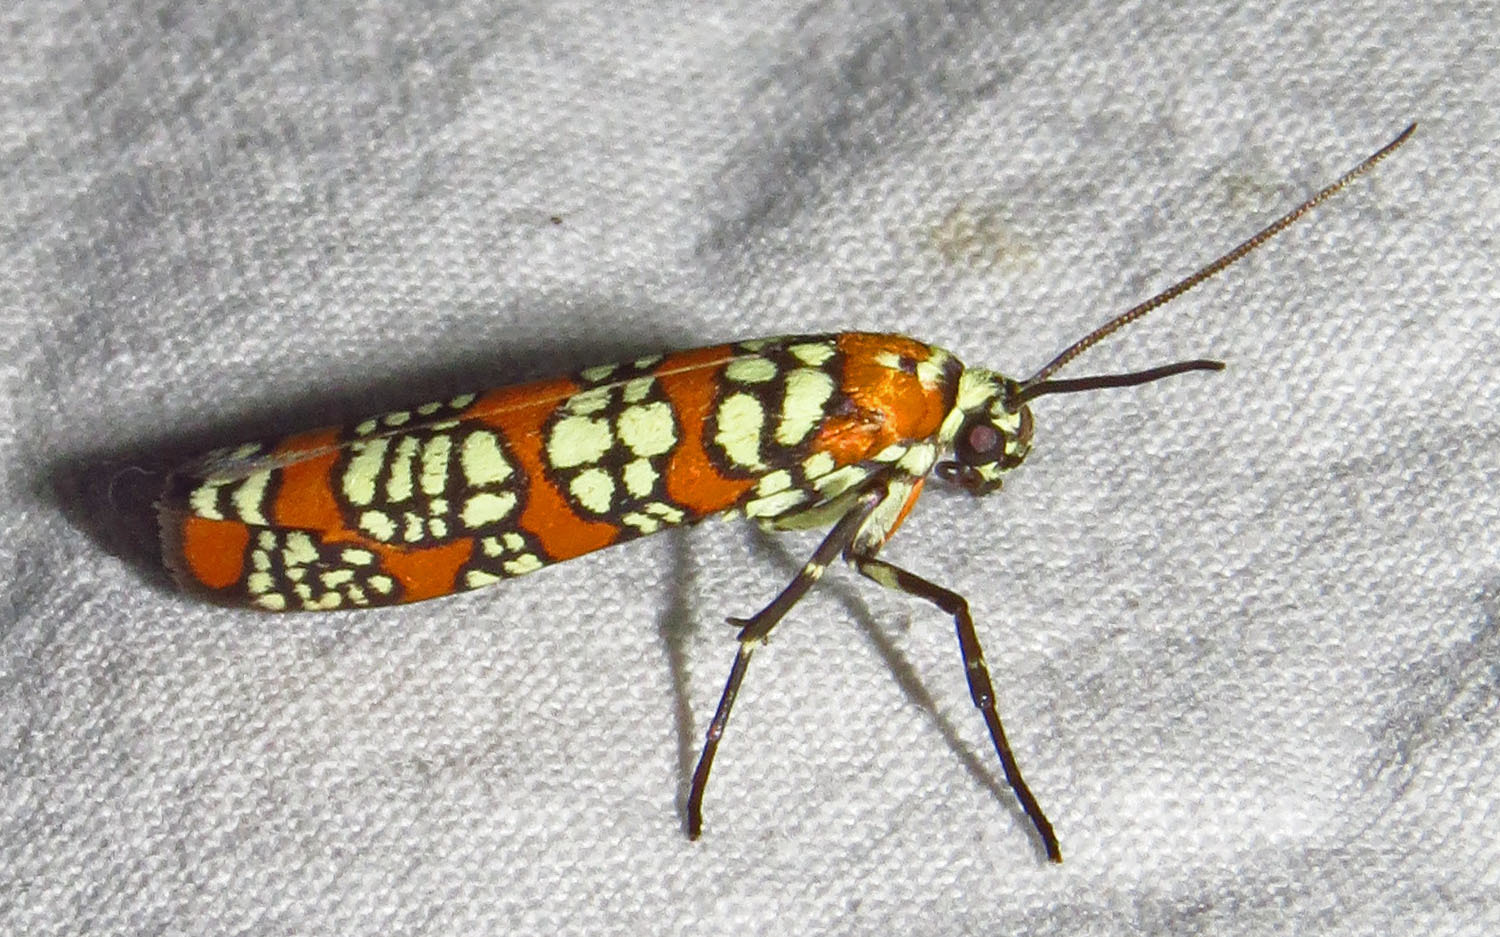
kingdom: Animalia
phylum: Arthropoda
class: Insecta
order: Lepidoptera
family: Attevidae
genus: Atteva
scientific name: Atteva punctella
